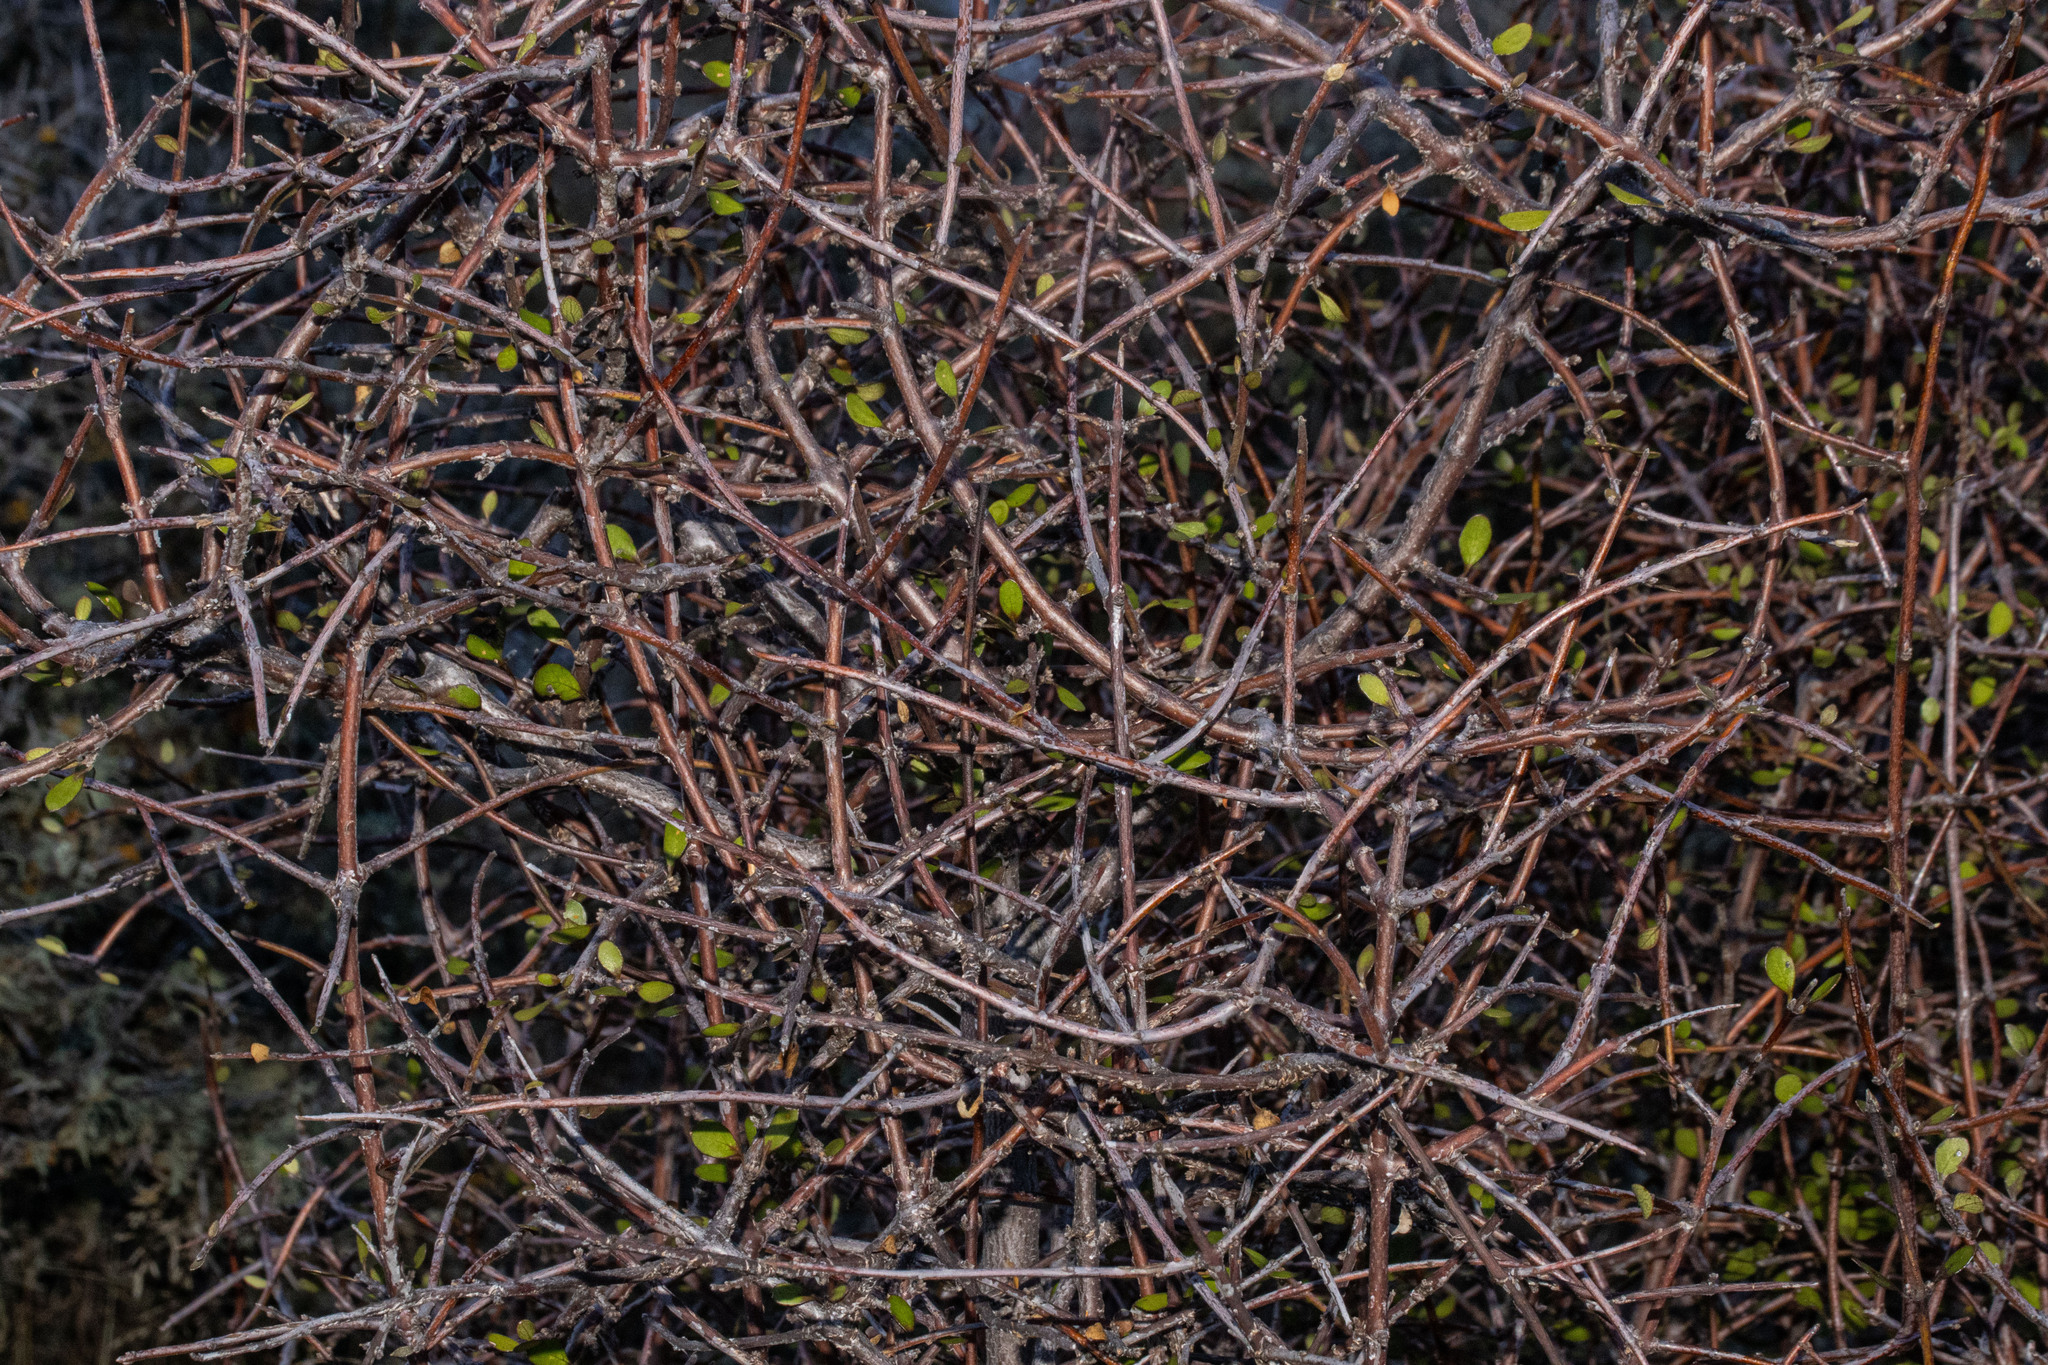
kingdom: Plantae
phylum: Tracheophyta
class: Magnoliopsida
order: Oxalidales
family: Elaeocarpaceae
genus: Aristotelia
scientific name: Aristotelia fruticosa
